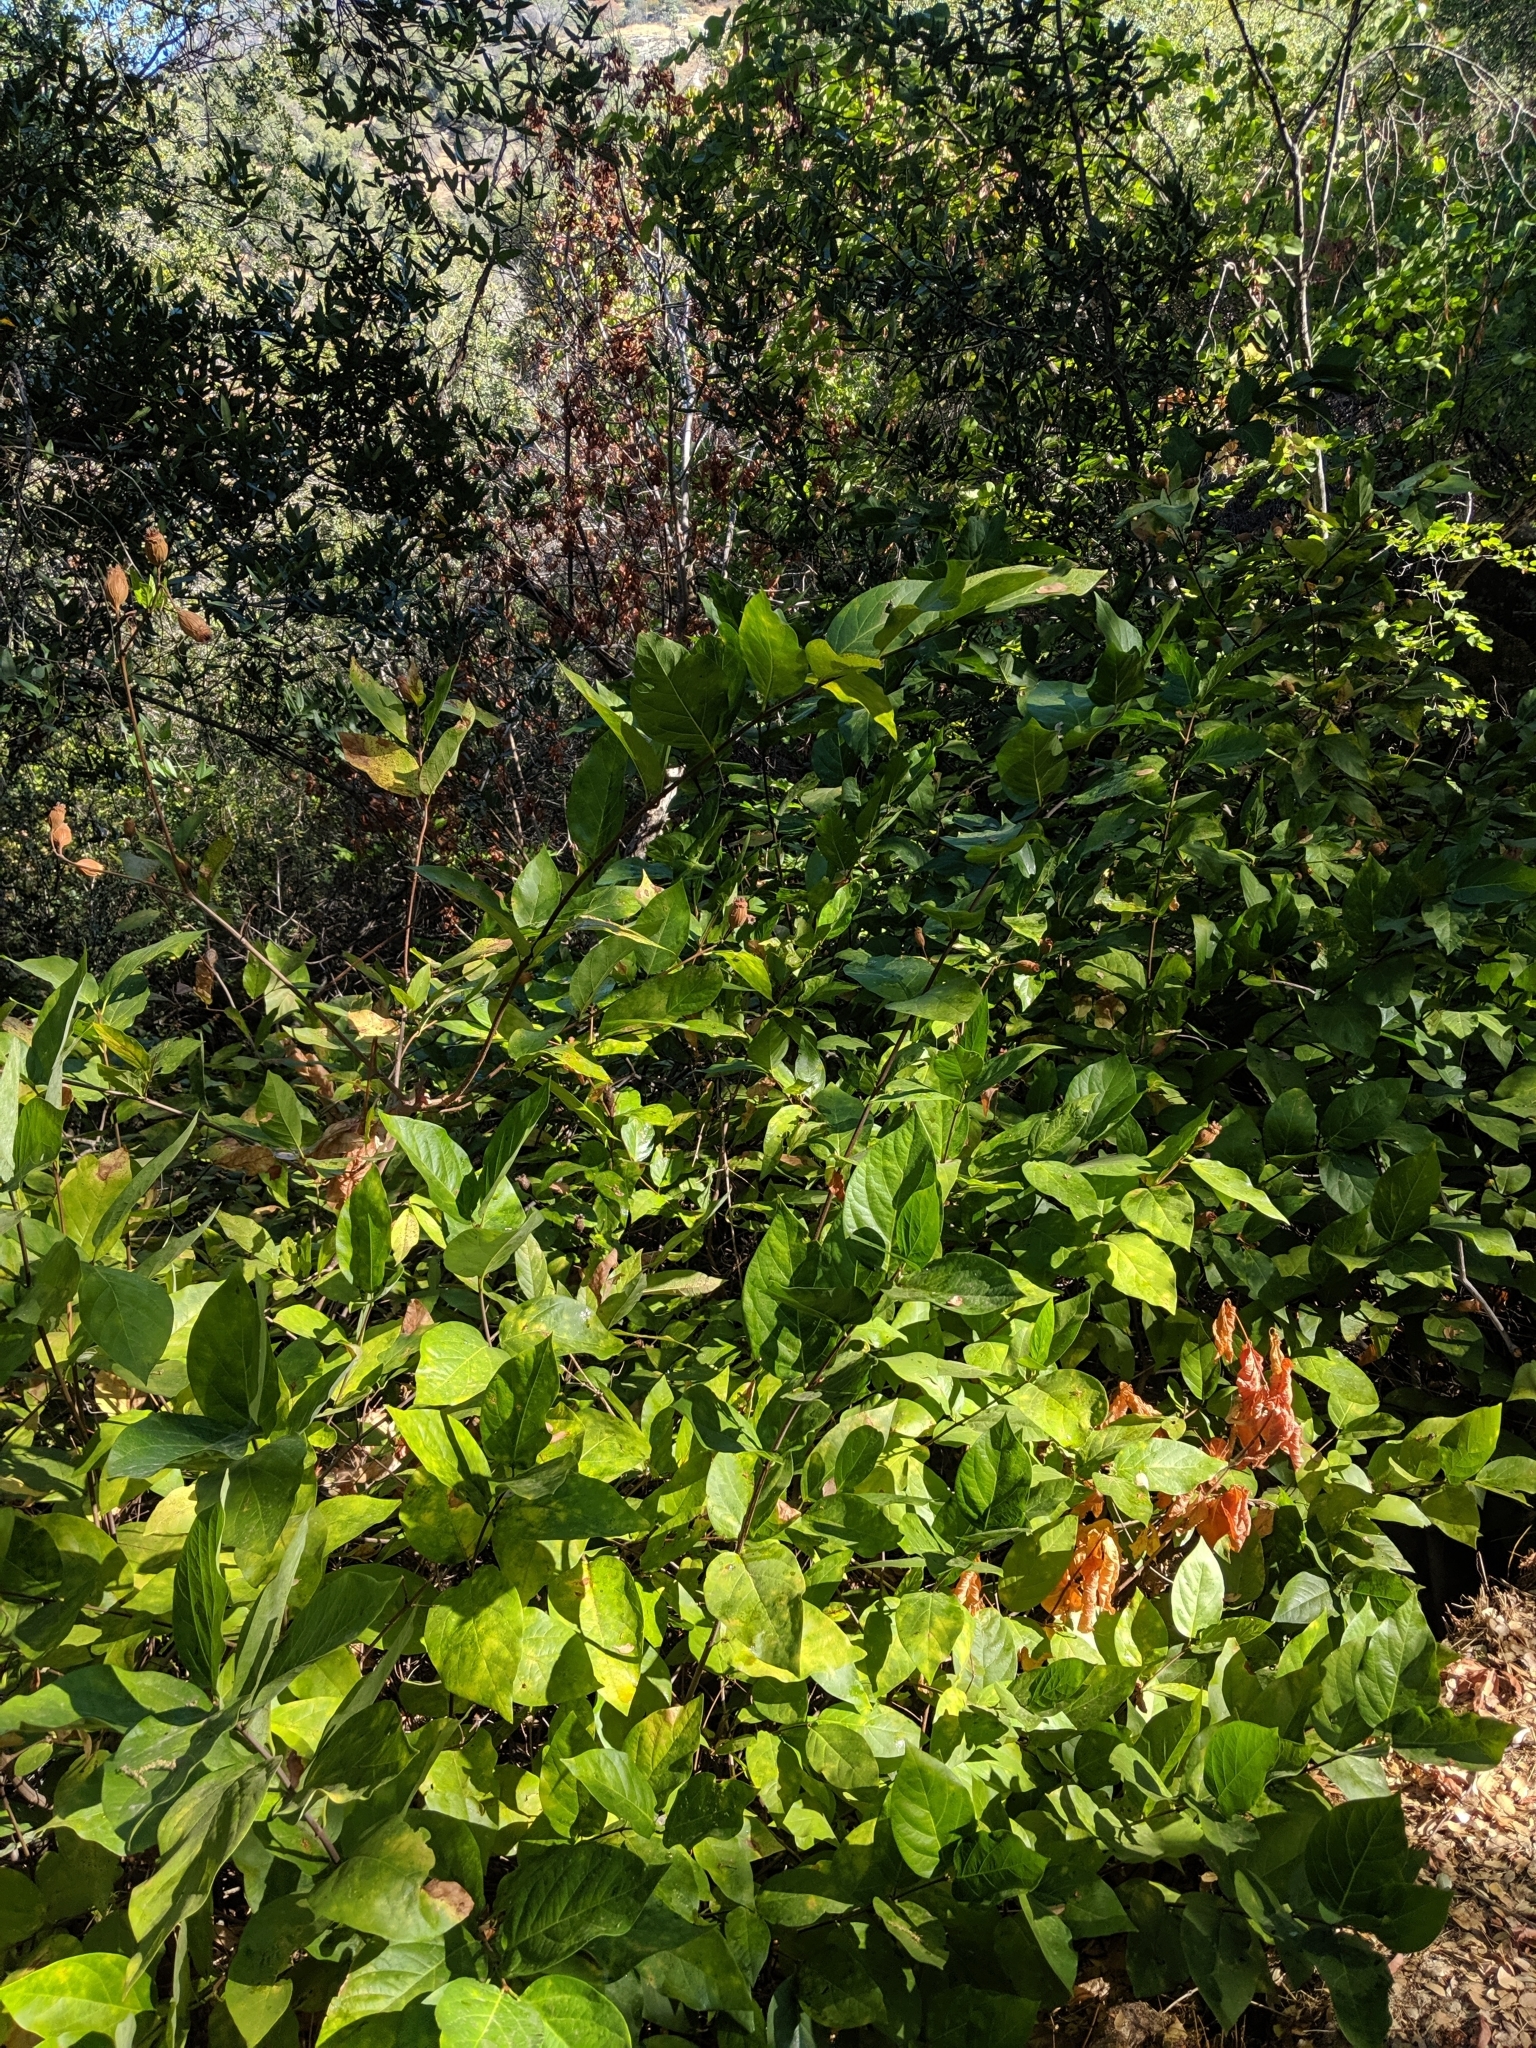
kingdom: Plantae
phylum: Tracheophyta
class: Magnoliopsida
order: Laurales
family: Calycanthaceae
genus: Calycanthus
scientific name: Calycanthus occidentalis
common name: California spicebush
